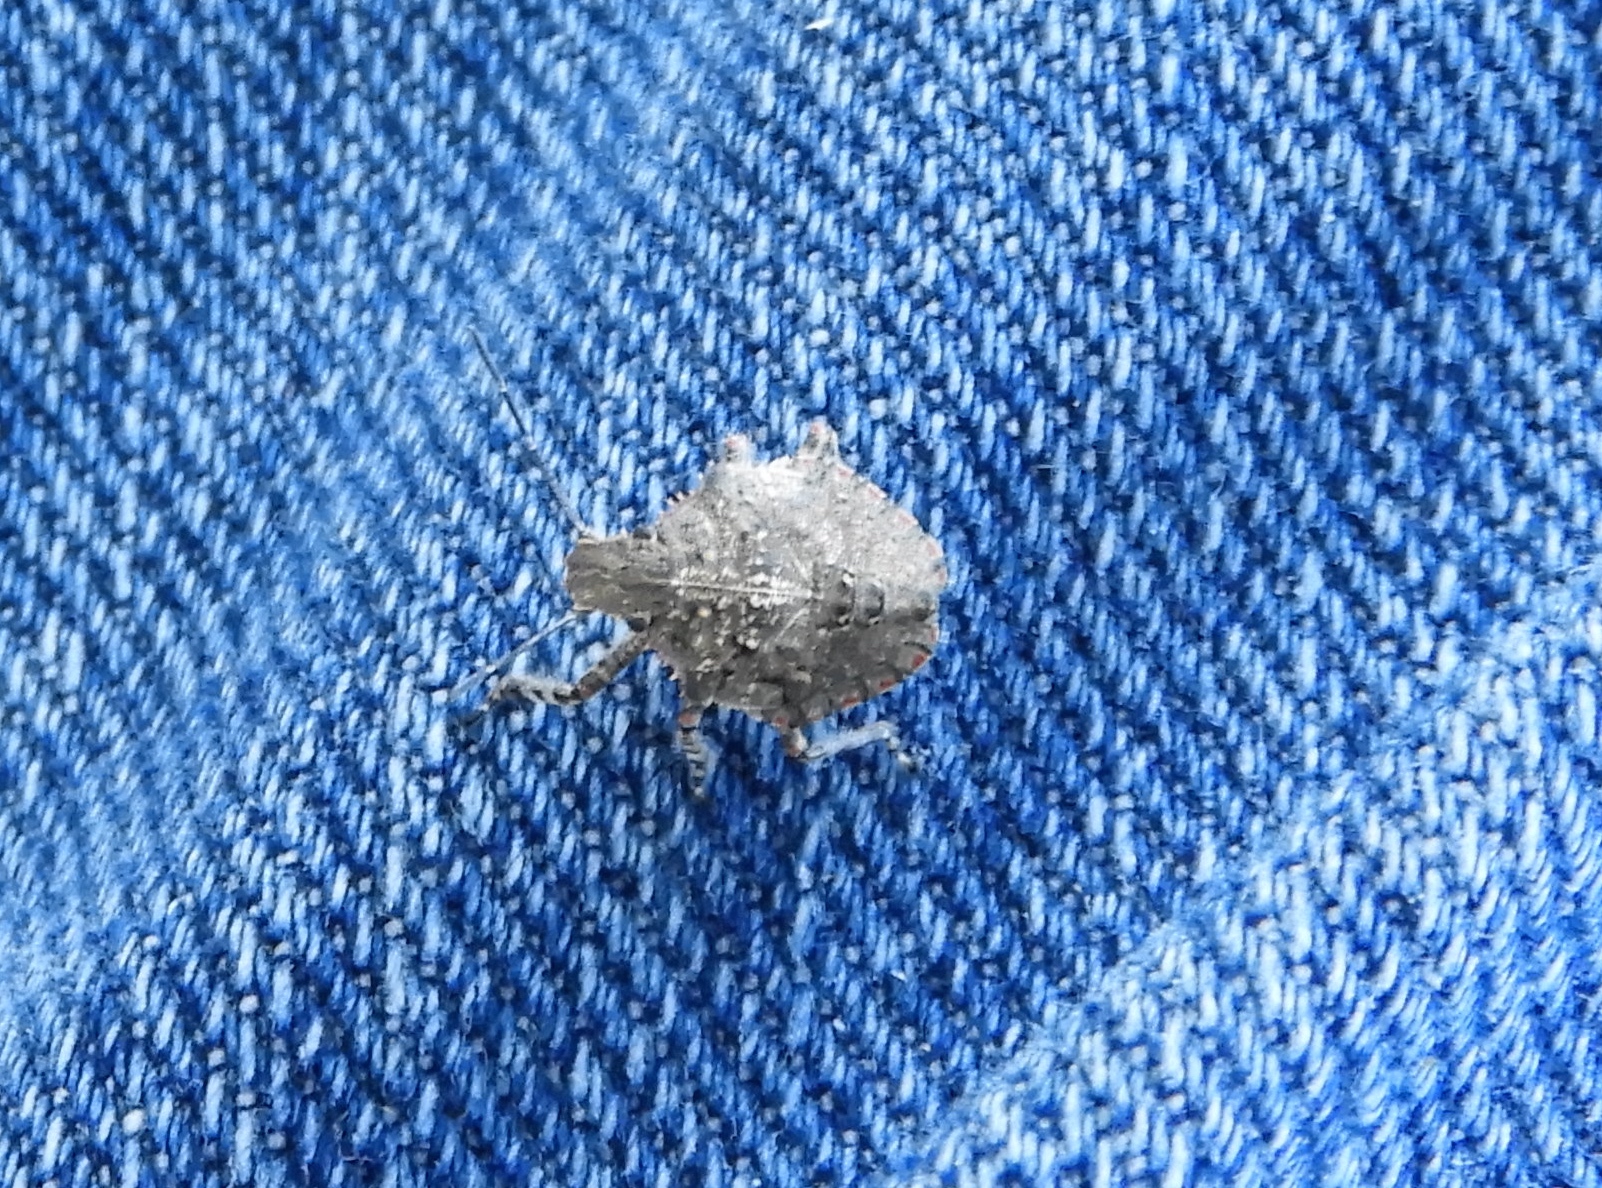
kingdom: Animalia
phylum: Arthropoda
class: Insecta
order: Hemiptera
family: Pentatomidae
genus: Brochymena
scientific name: Brochymena
